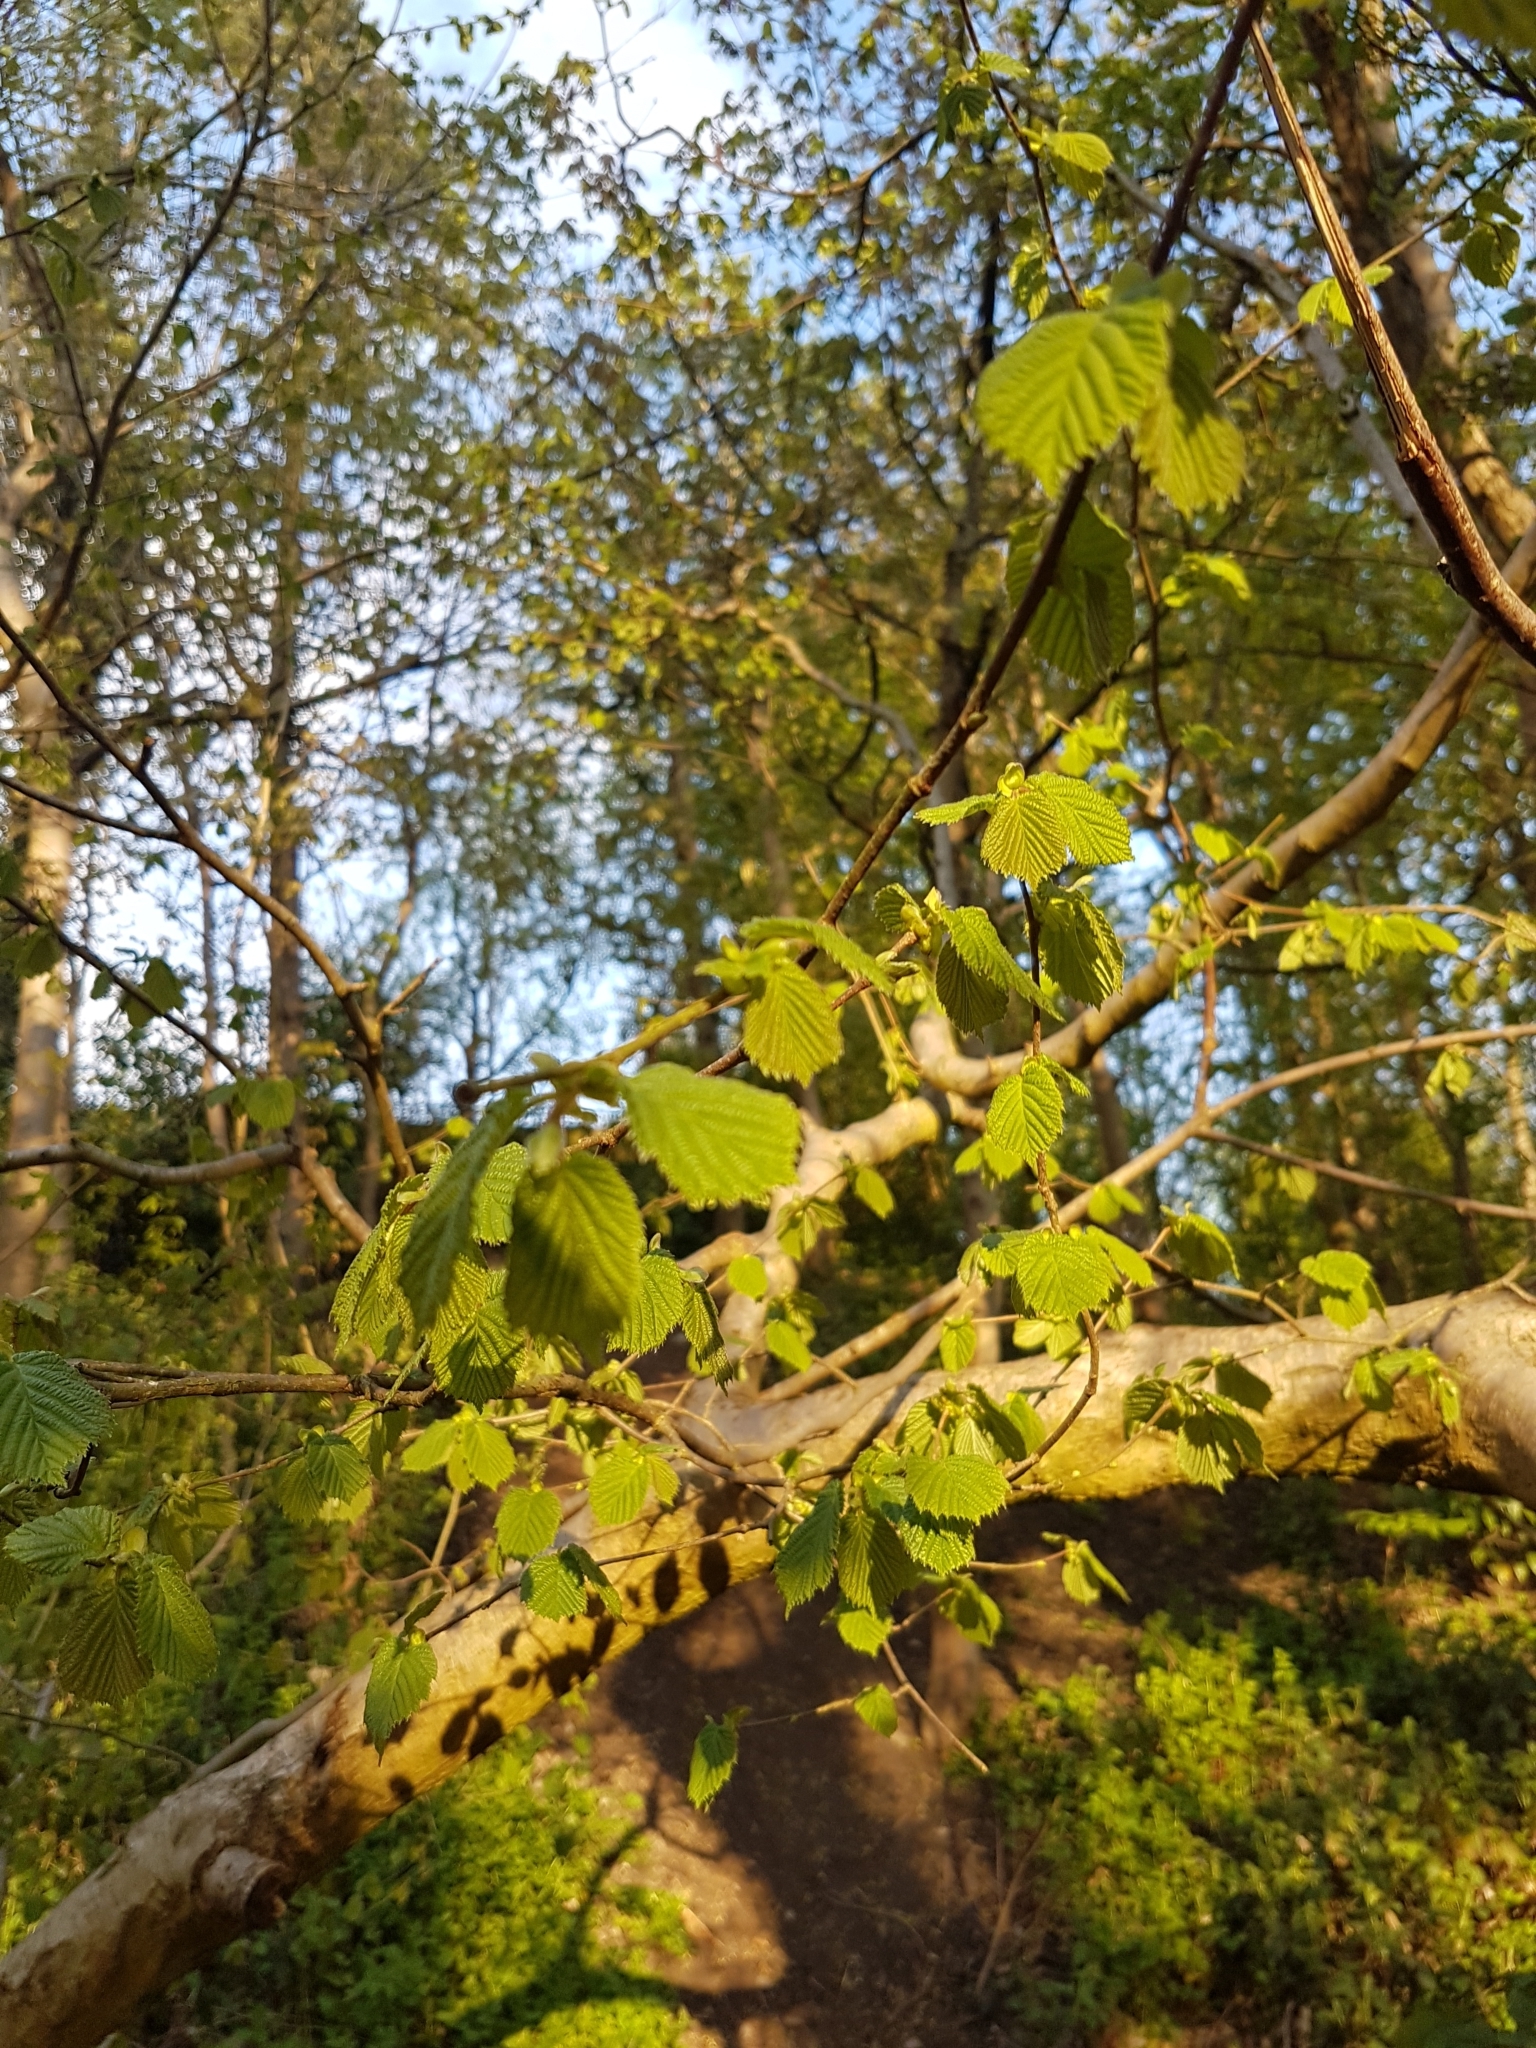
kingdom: Plantae
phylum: Tracheophyta
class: Magnoliopsida
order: Fagales
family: Betulaceae
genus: Corylus
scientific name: Corylus avellana
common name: European hazel
